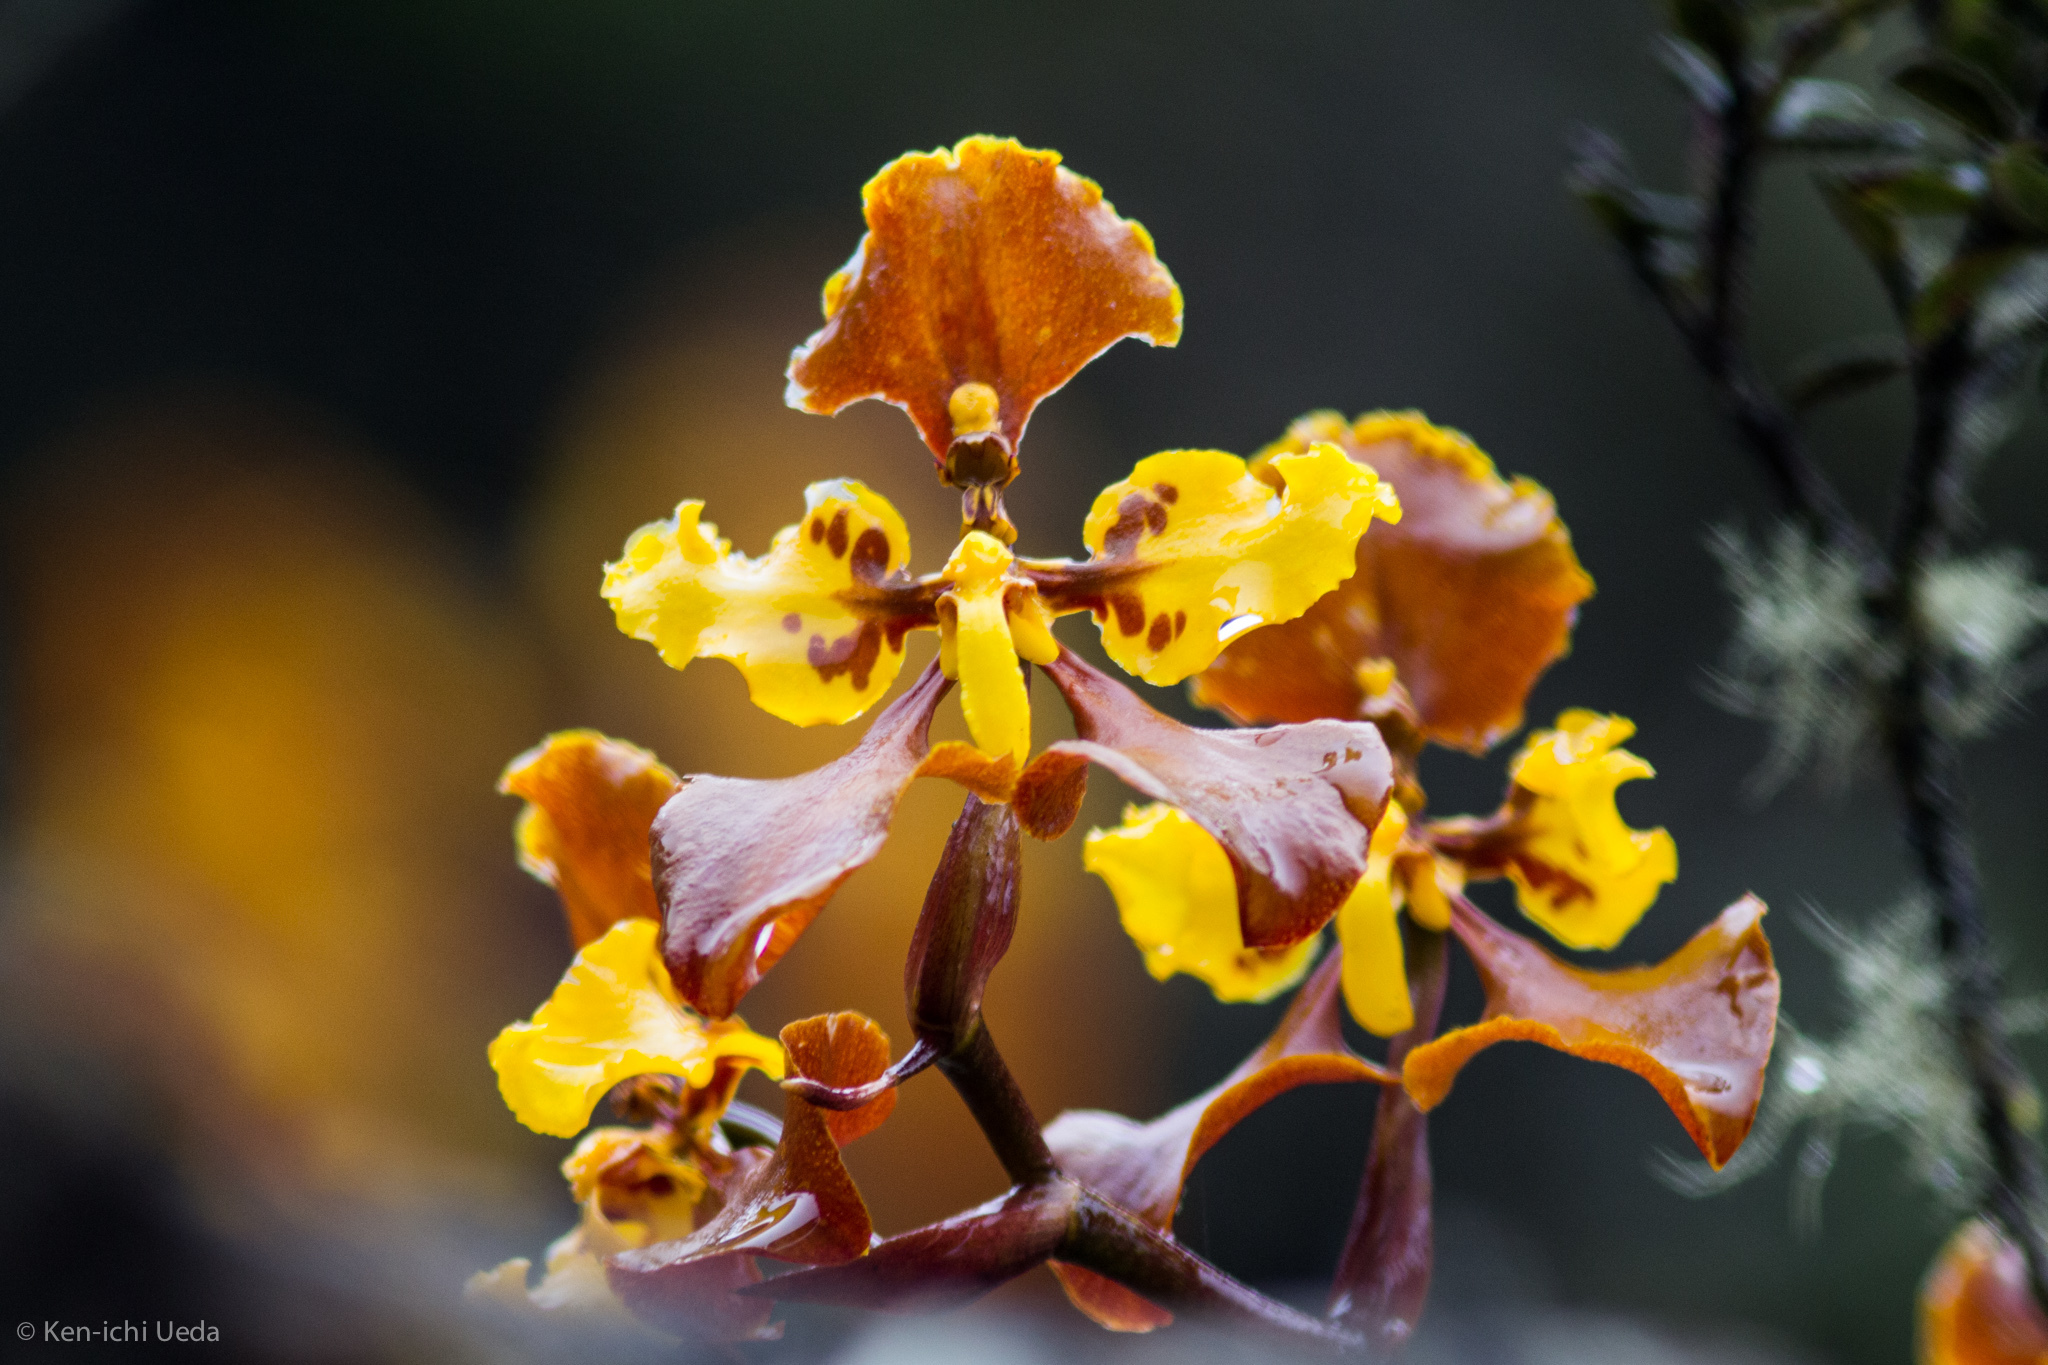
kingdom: Plantae
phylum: Tracheophyta
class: Liliopsida
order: Asparagales
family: Orchidaceae
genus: Cyrtochilum
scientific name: Cyrtochilum tetracopis
